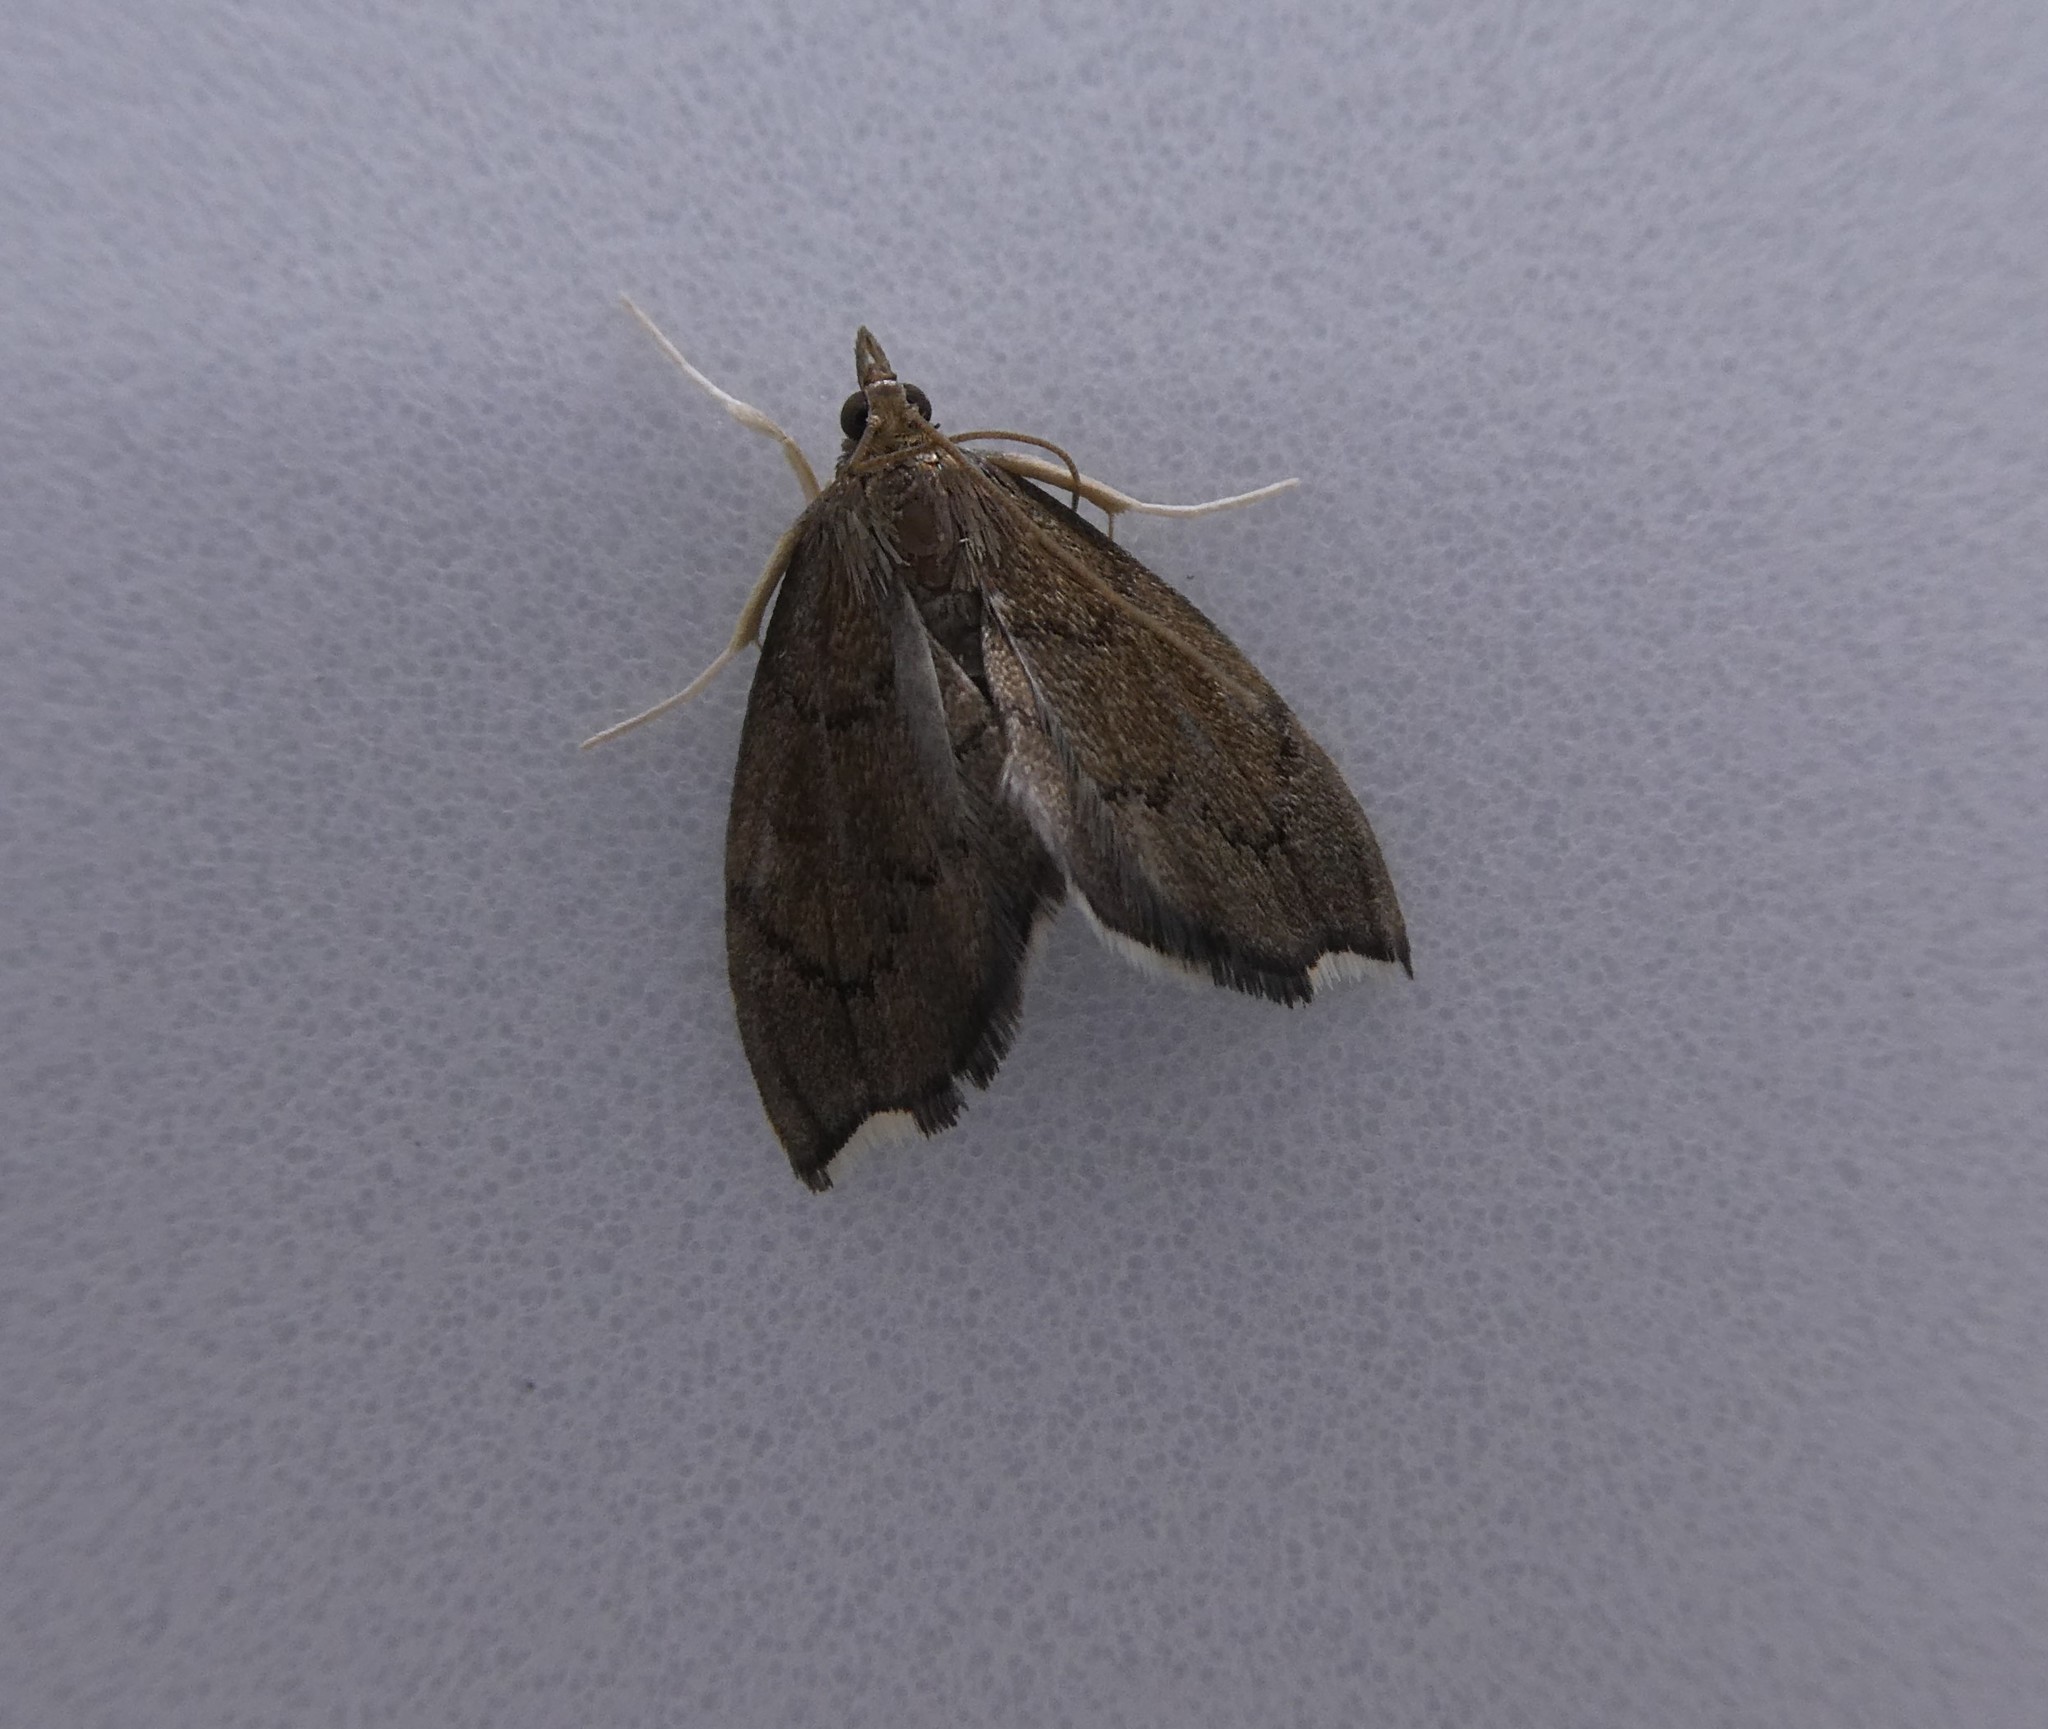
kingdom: Animalia
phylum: Arthropoda
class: Insecta
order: Lepidoptera
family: Crambidae
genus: Perispasta
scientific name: Perispasta caeculalis
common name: Titian peale's moth
